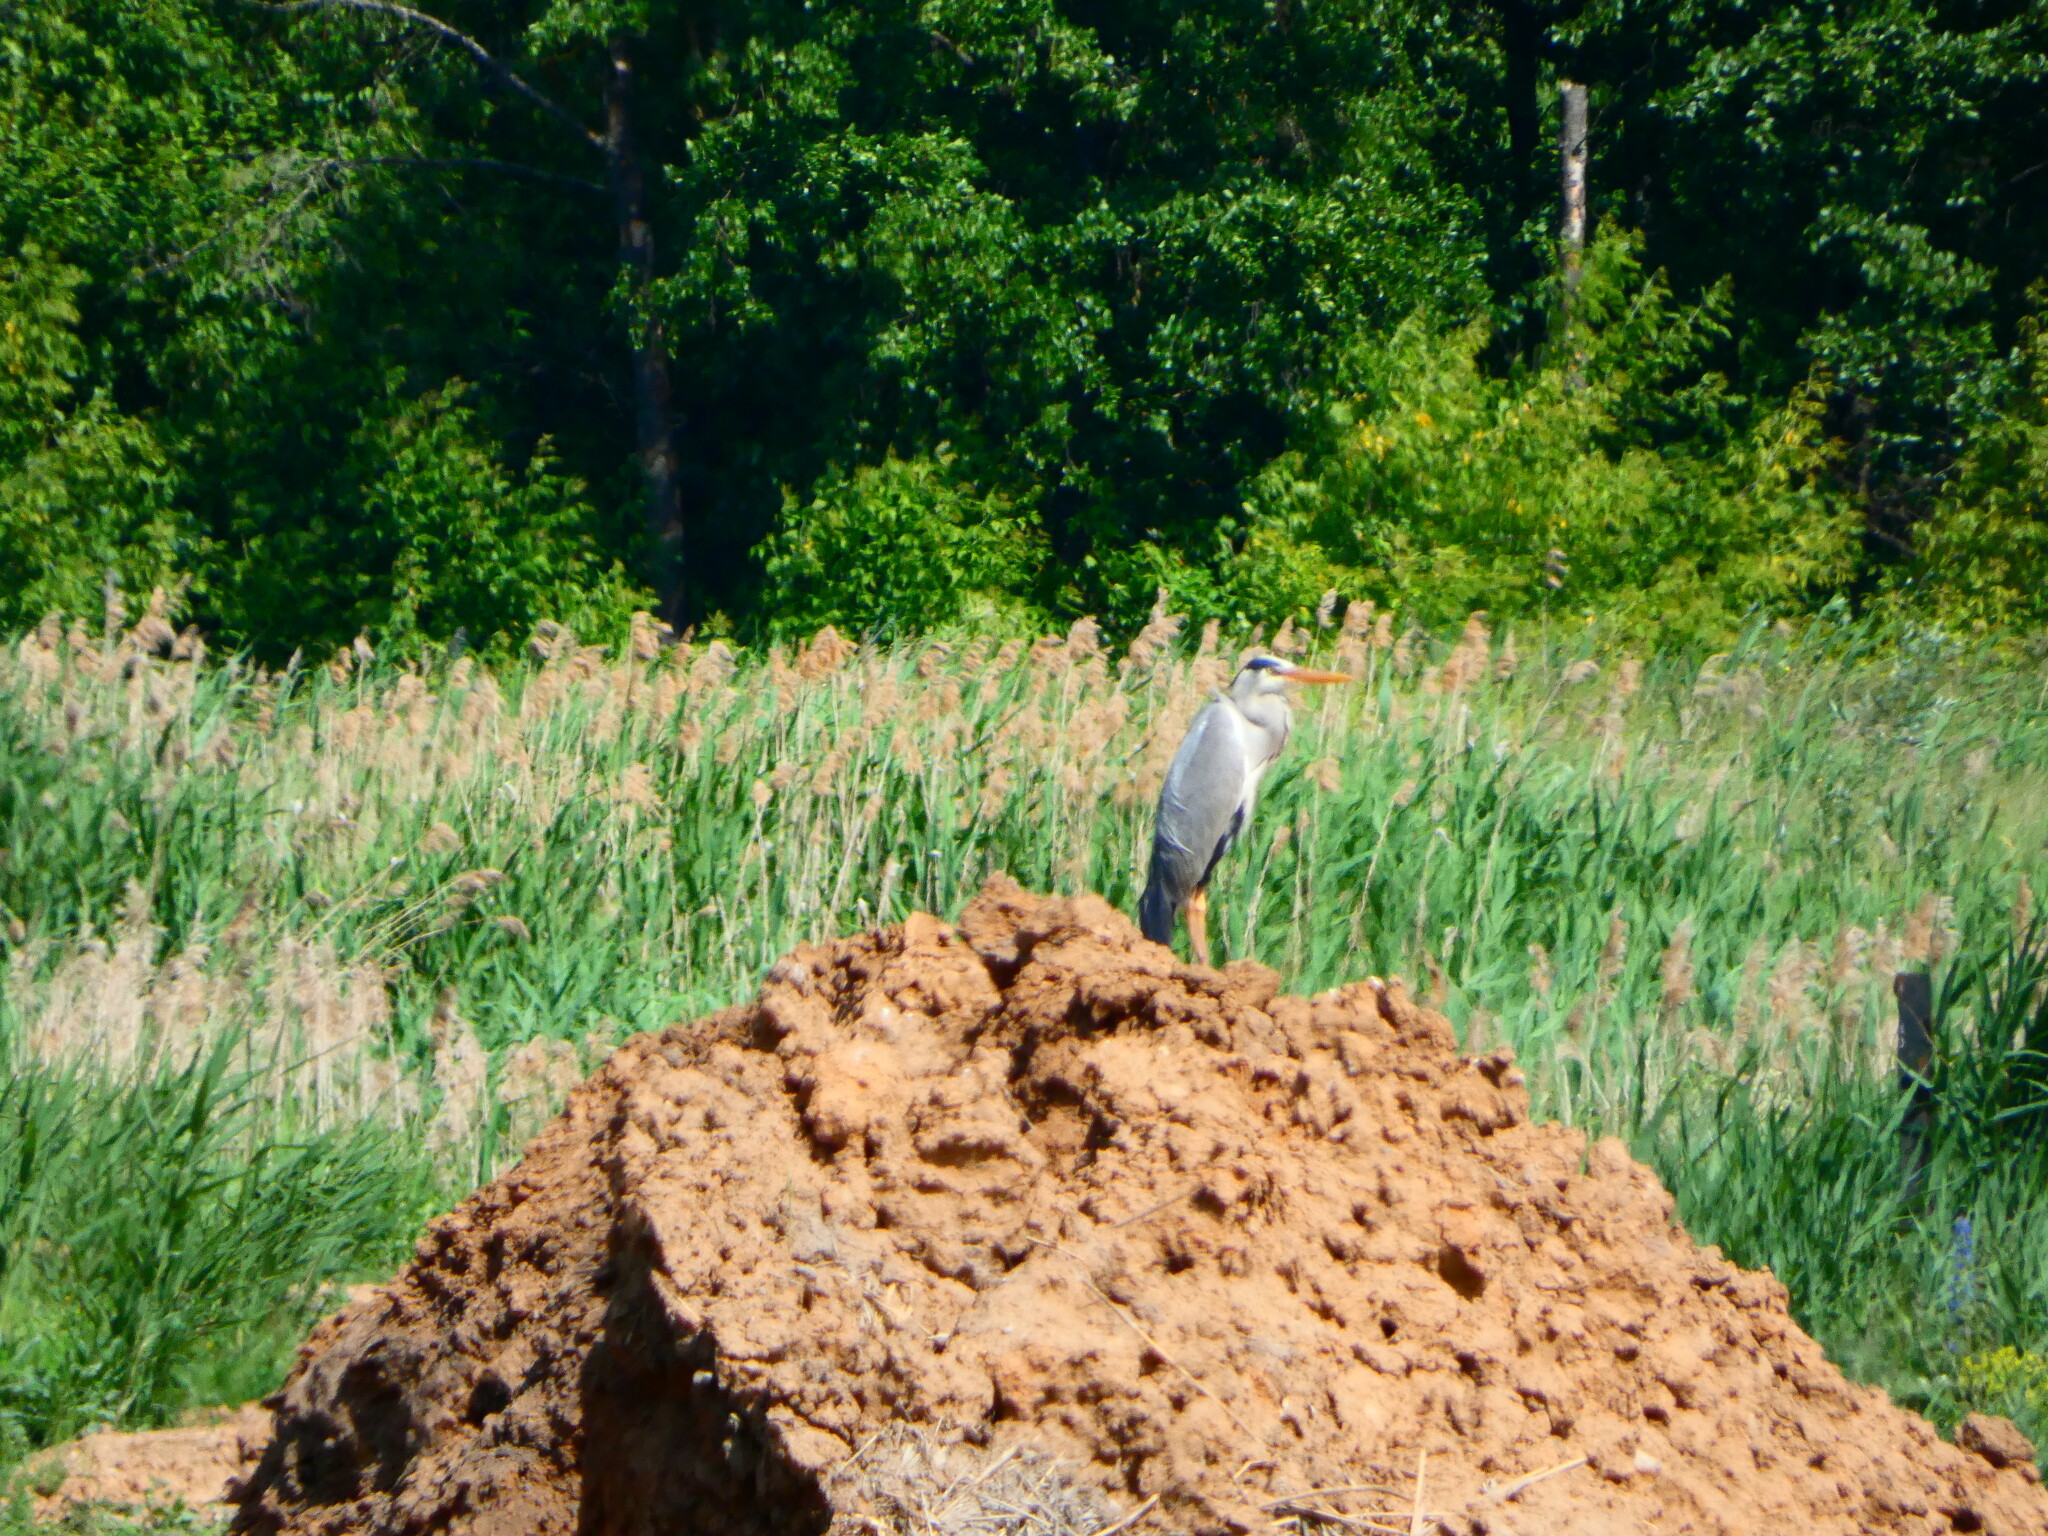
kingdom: Animalia
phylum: Chordata
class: Aves
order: Pelecaniformes
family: Ardeidae
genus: Ardea
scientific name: Ardea cinerea
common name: Grey heron
